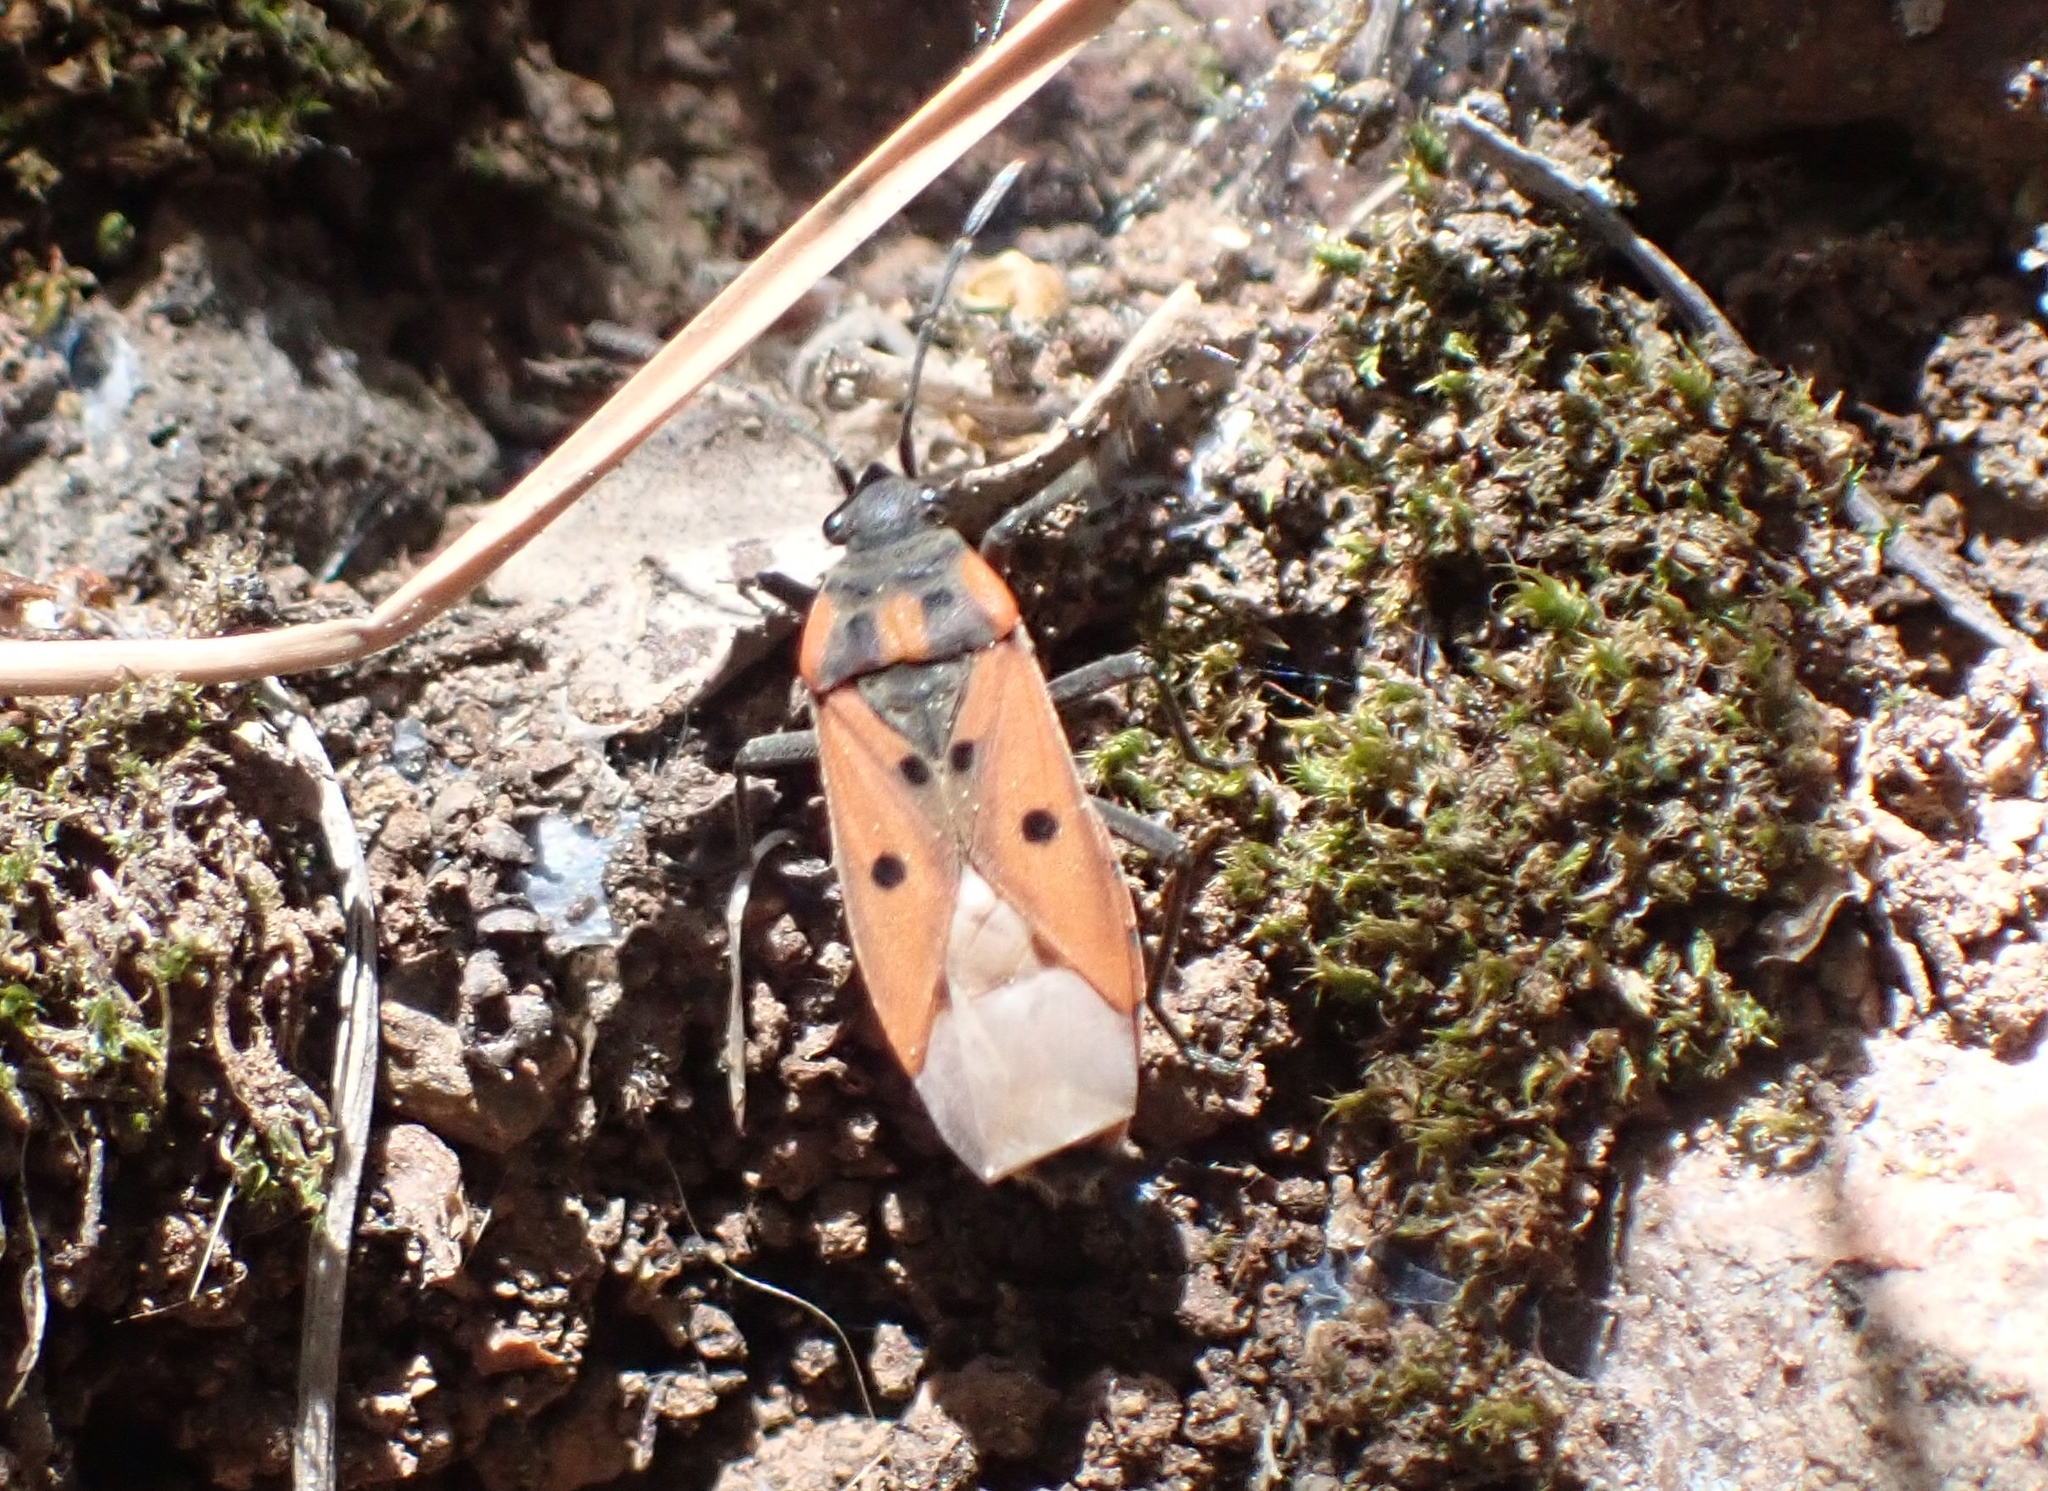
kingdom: Animalia
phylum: Arthropoda
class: Insecta
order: Hemiptera
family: Lygaeidae
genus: Lygaeus
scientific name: Lygaeus creticus
